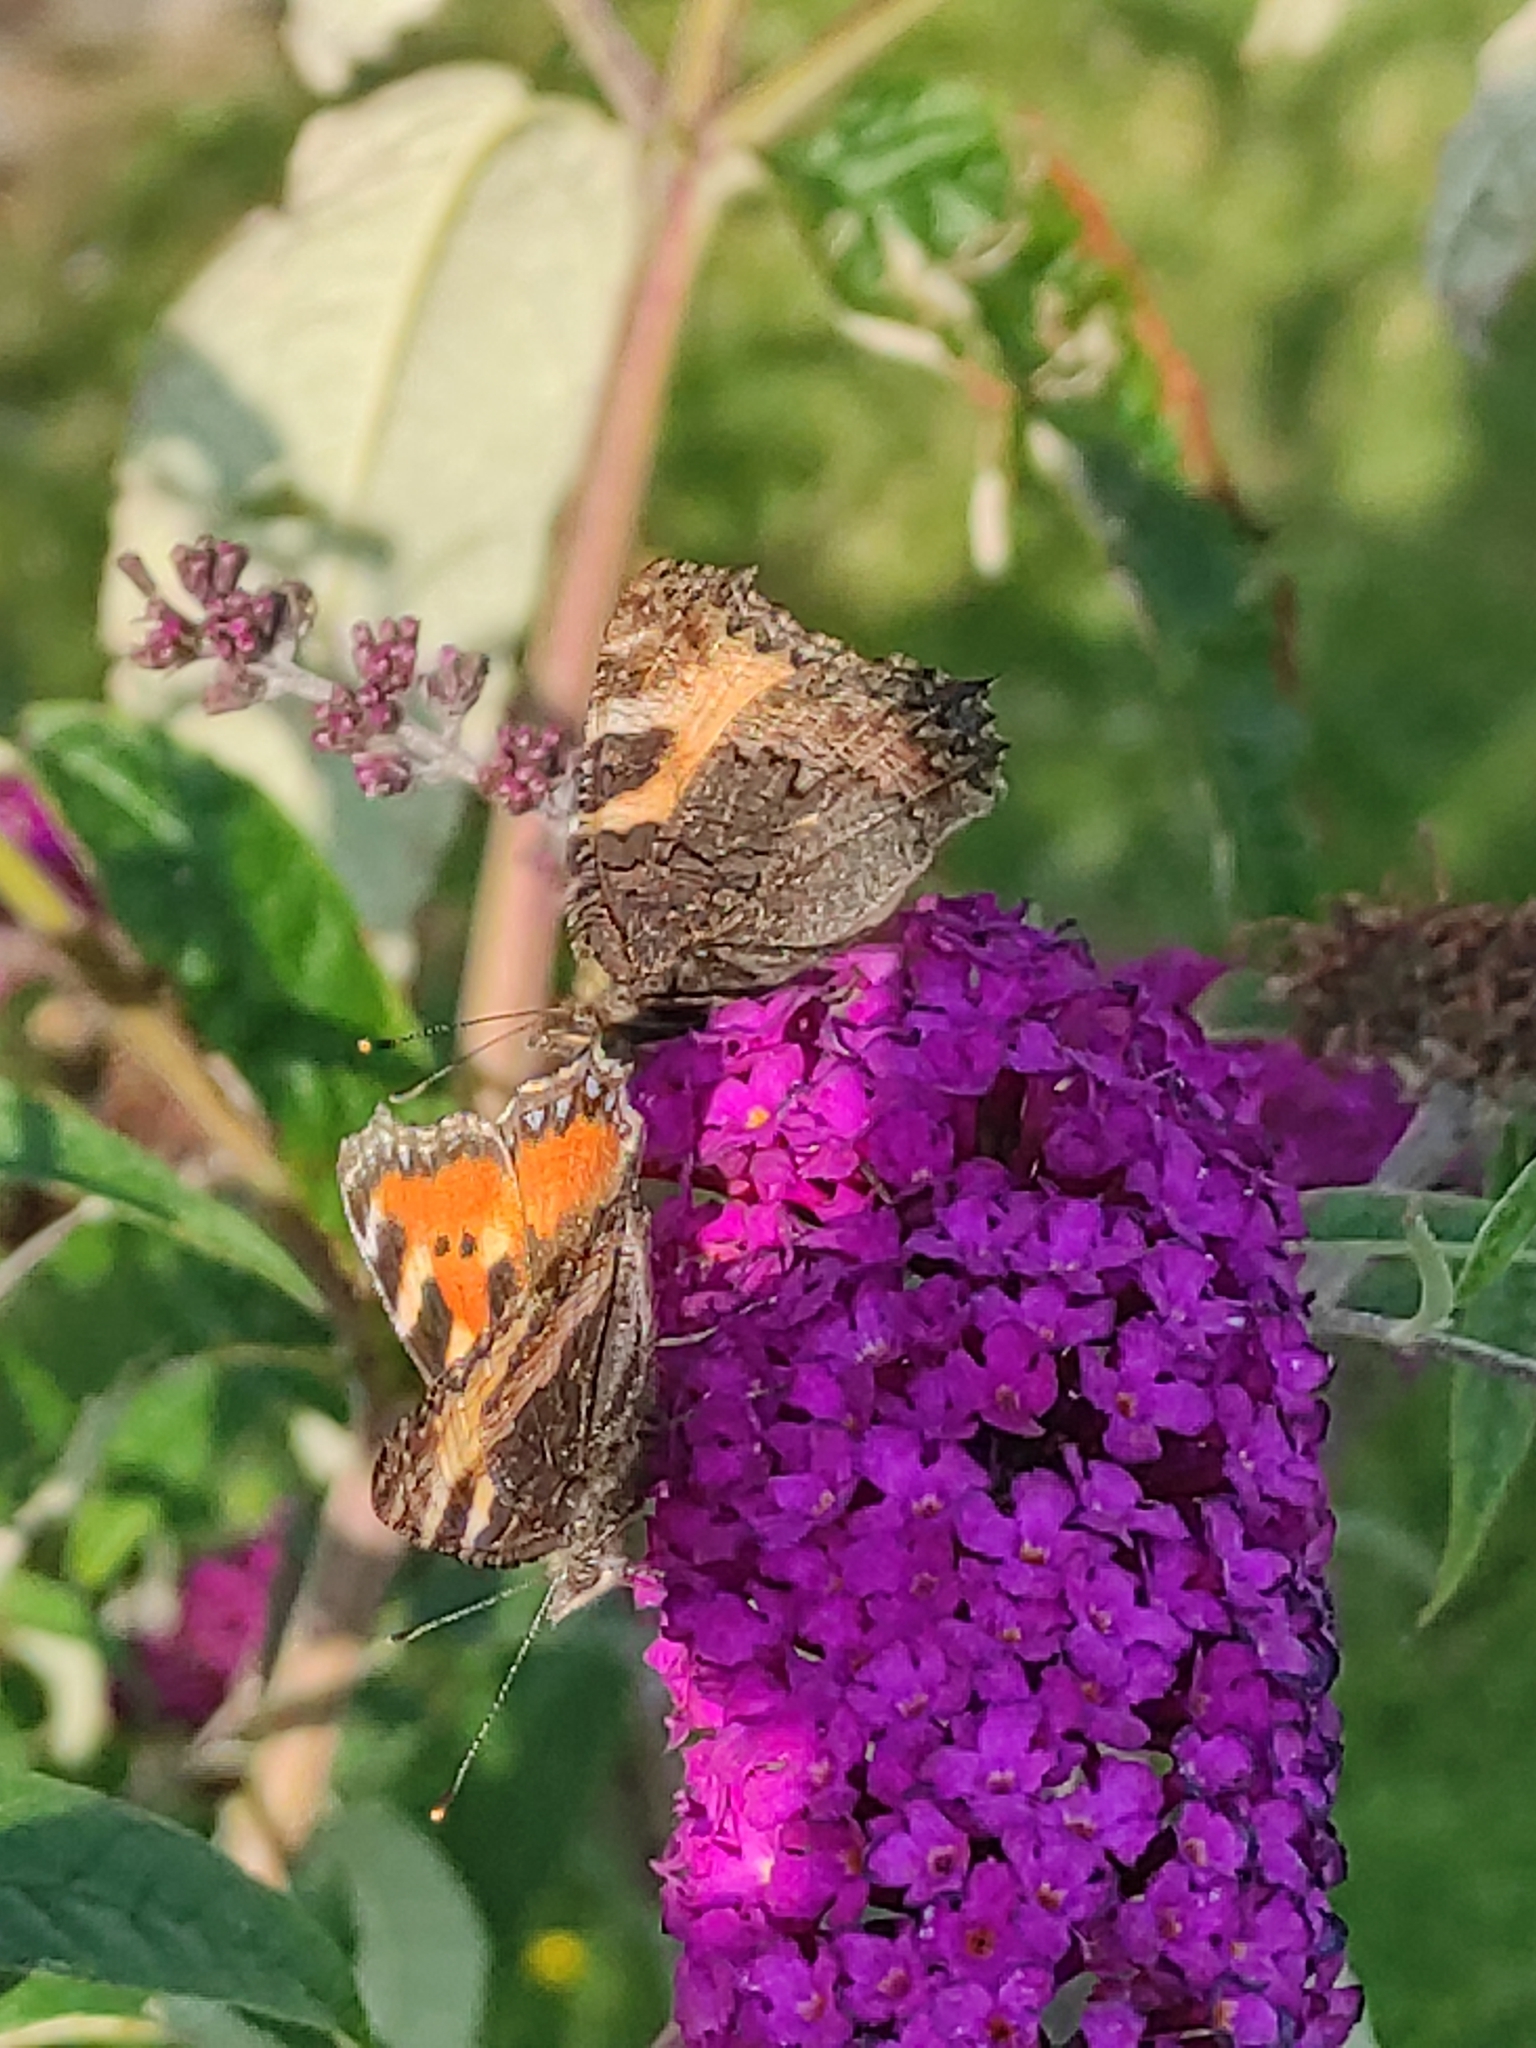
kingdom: Animalia
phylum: Arthropoda
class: Insecta
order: Lepidoptera
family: Nymphalidae
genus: Aglais
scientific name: Aglais urticae
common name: Small tortoiseshell
